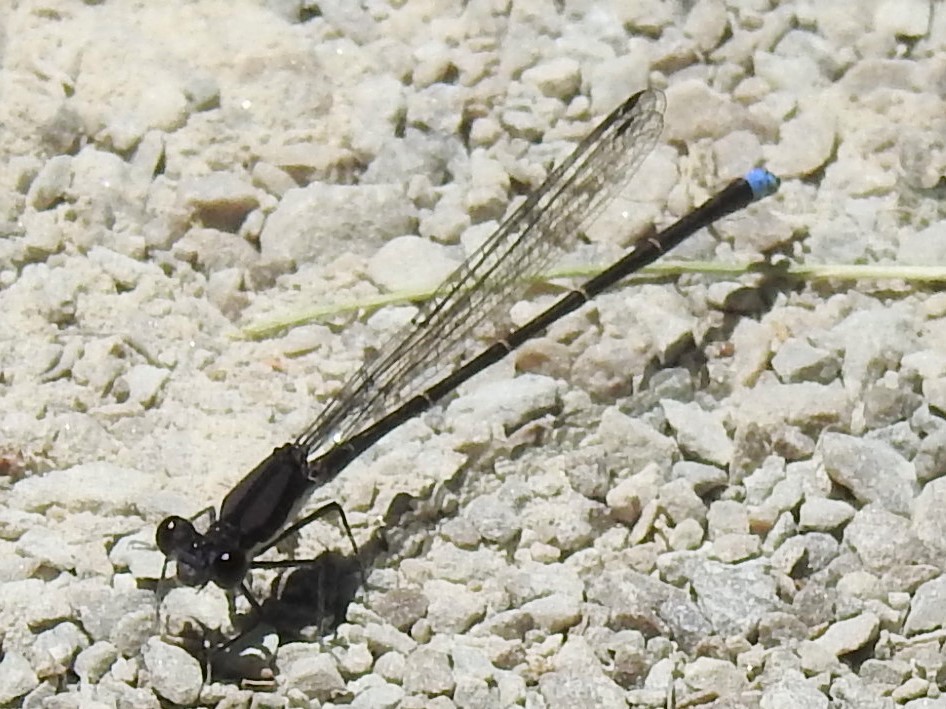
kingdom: Animalia
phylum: Arthropoda
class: Insecta
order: Odonata
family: Coenagrionidae
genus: Argia
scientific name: Argia tibialis
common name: Blue-tipped dancer
